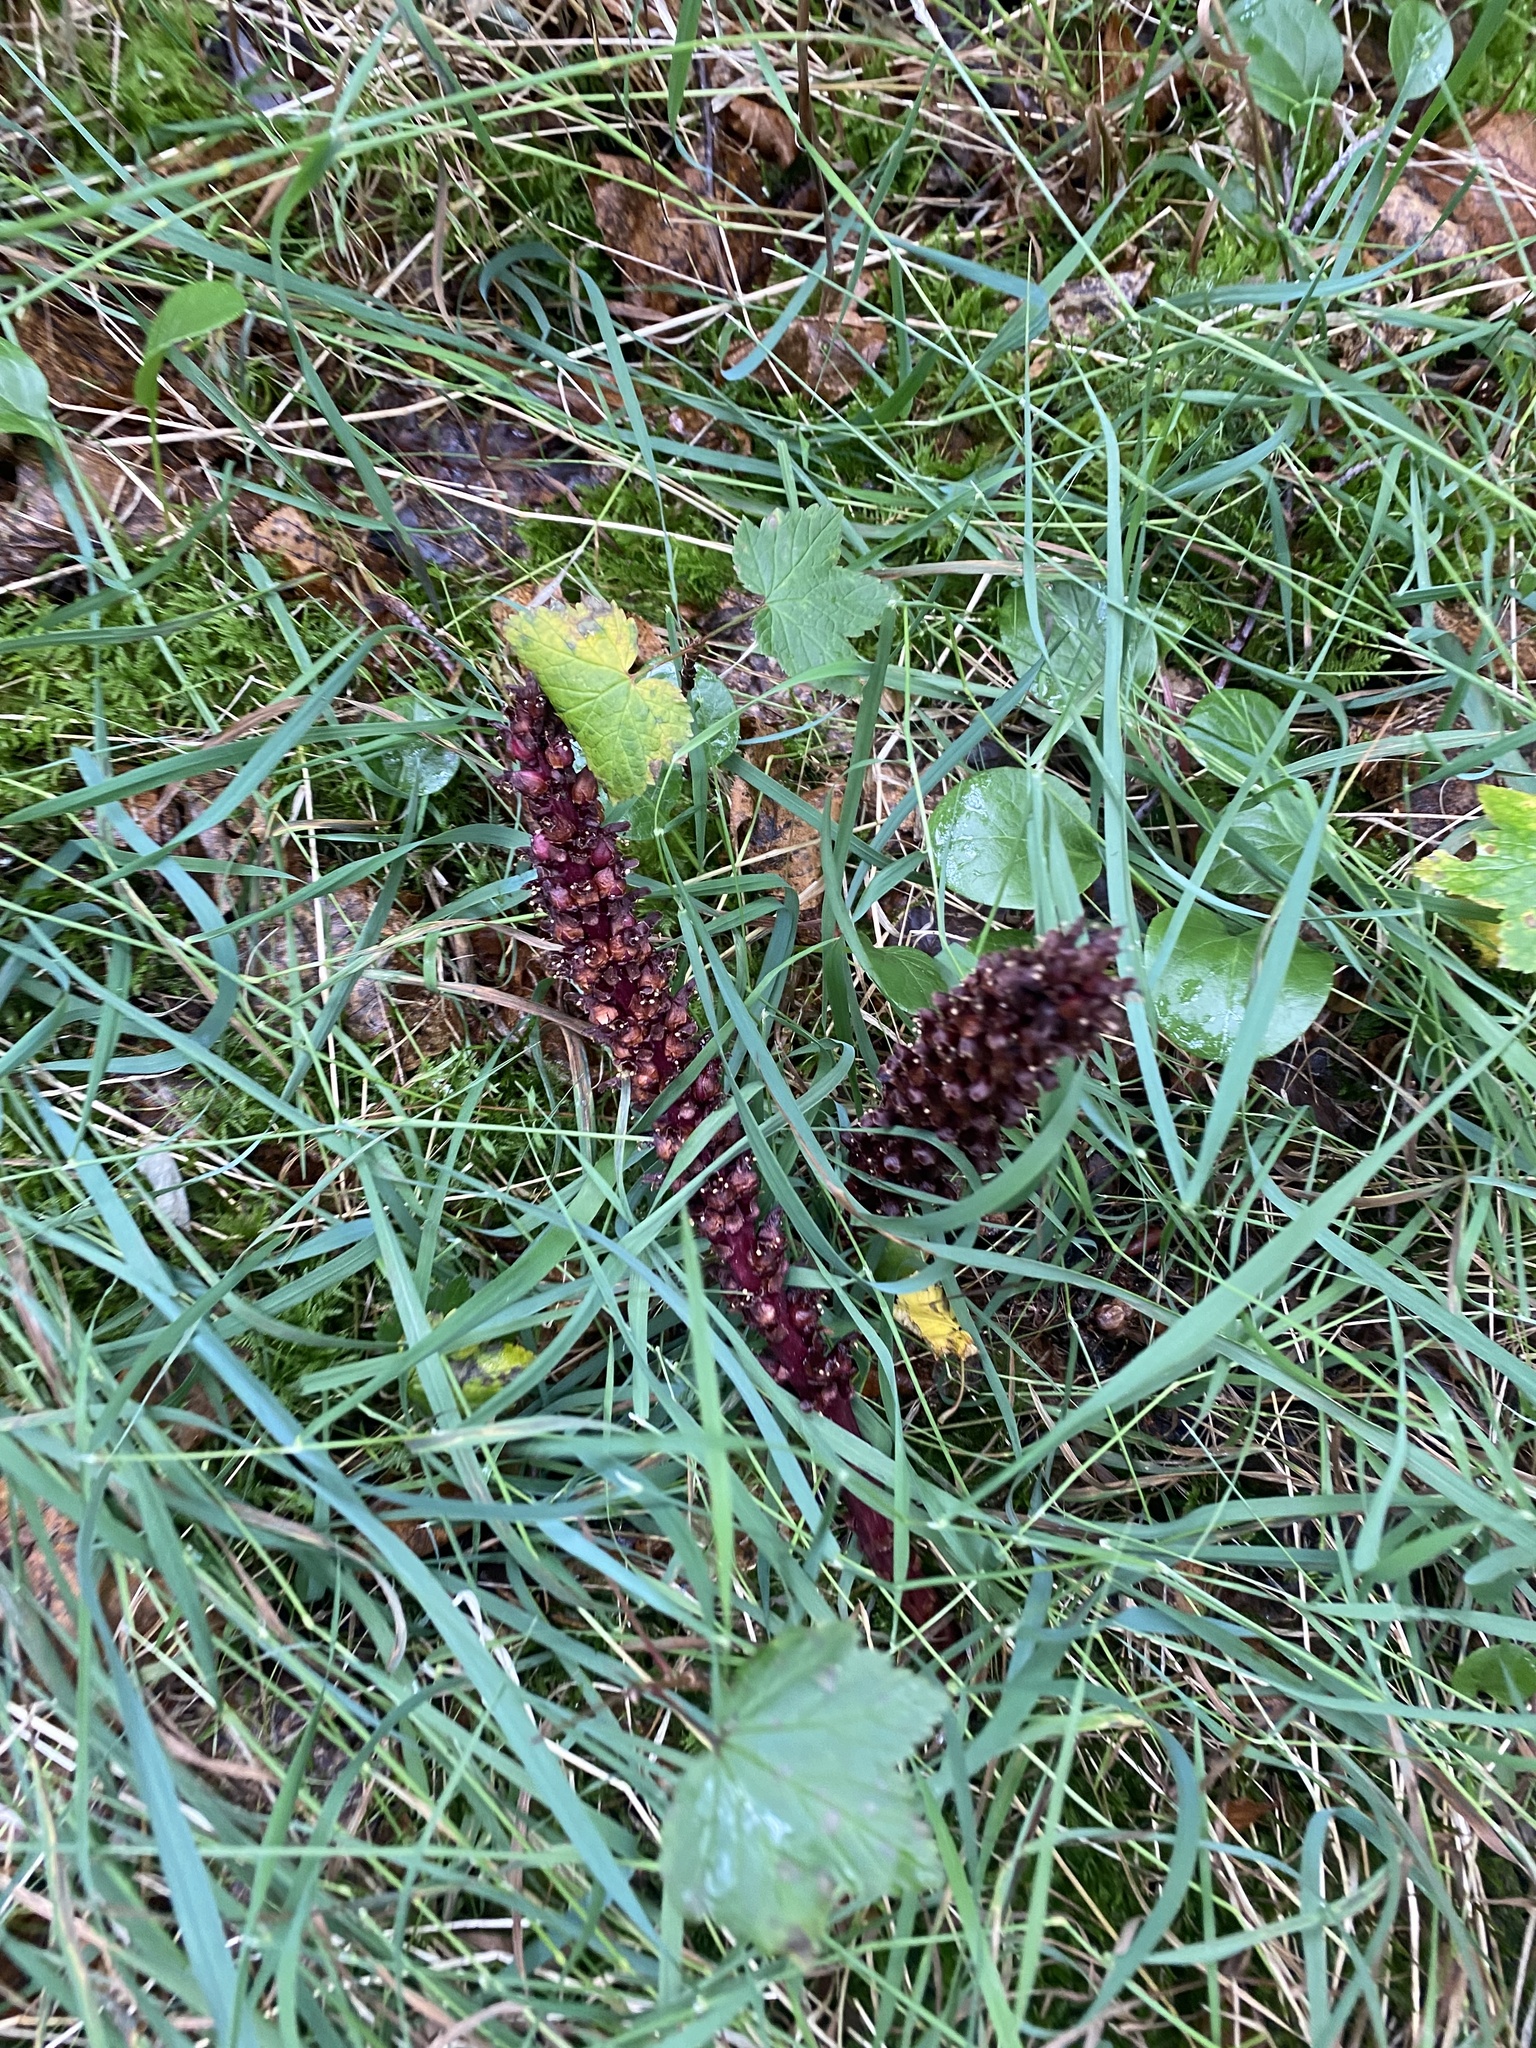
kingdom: Plantae
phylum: Tracheophyta
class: Magnoliopsida
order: Lamiales
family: Orobanchaceae
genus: Boschniakia
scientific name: Boschniakia rossica
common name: Poque
